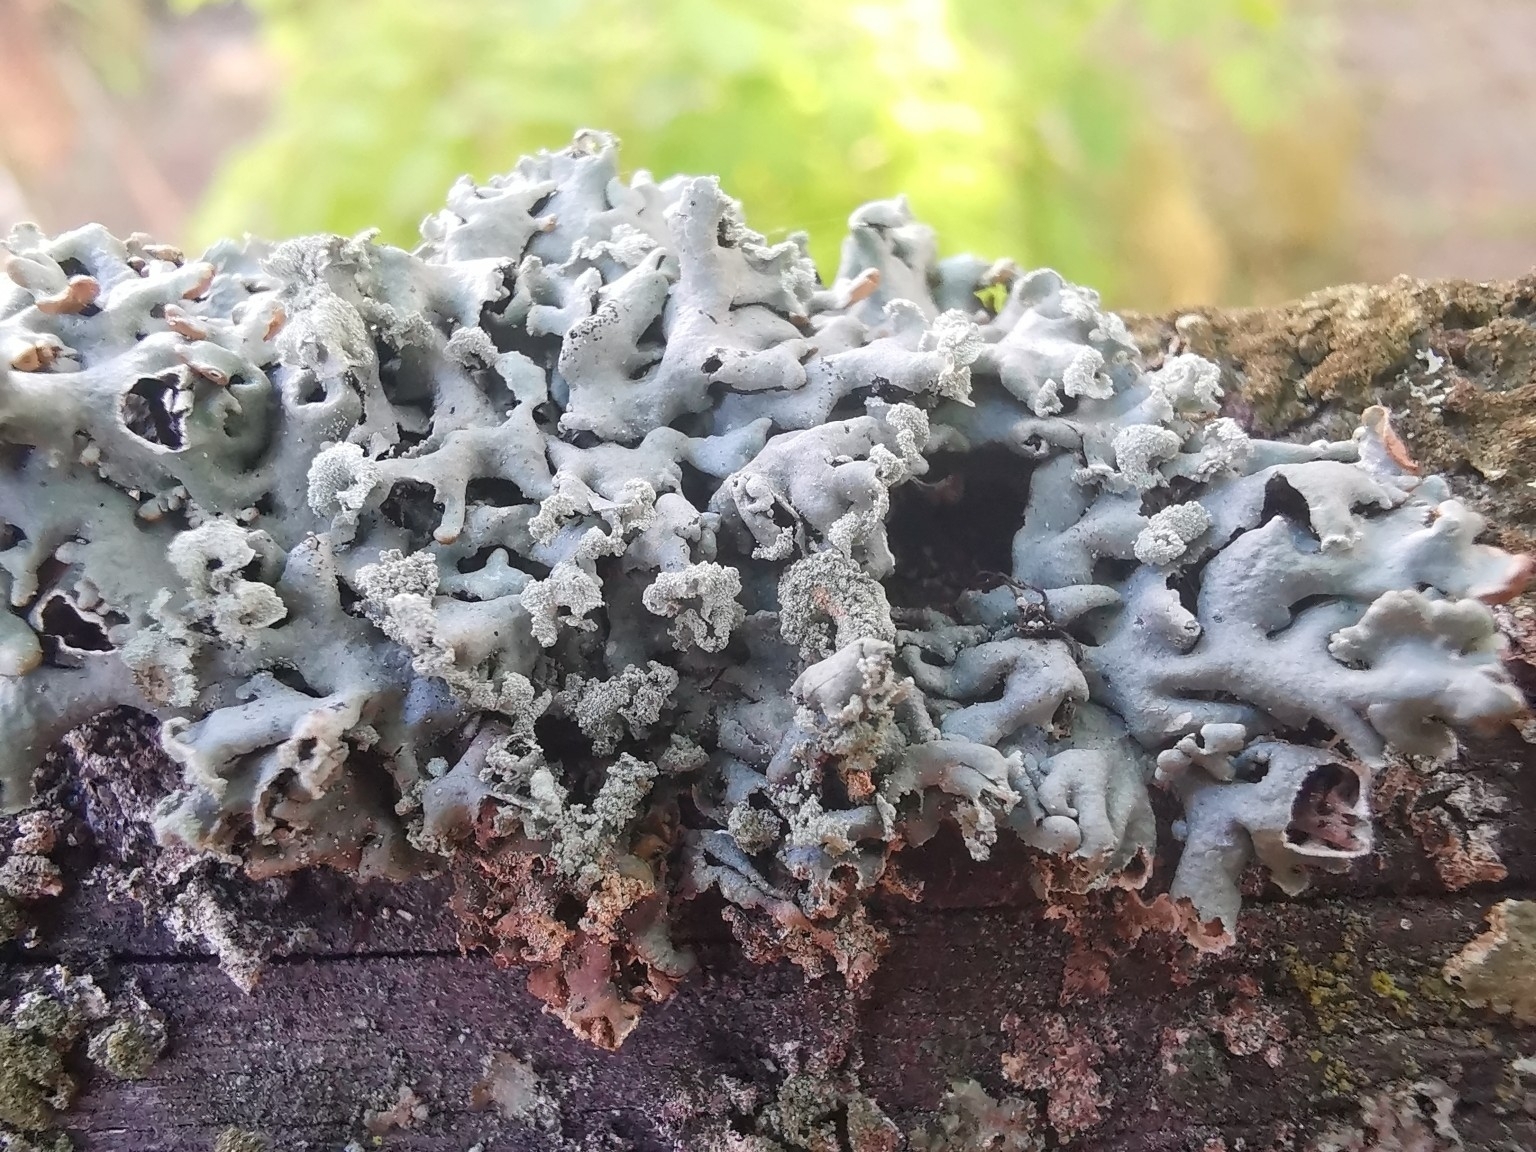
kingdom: Fungi
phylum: Ascomycota
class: Lecanoromycetes
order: Lecanorales
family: Parmeliaceae
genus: Hypogymnia
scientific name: Hypogymnia physodes
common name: Dark crottle
